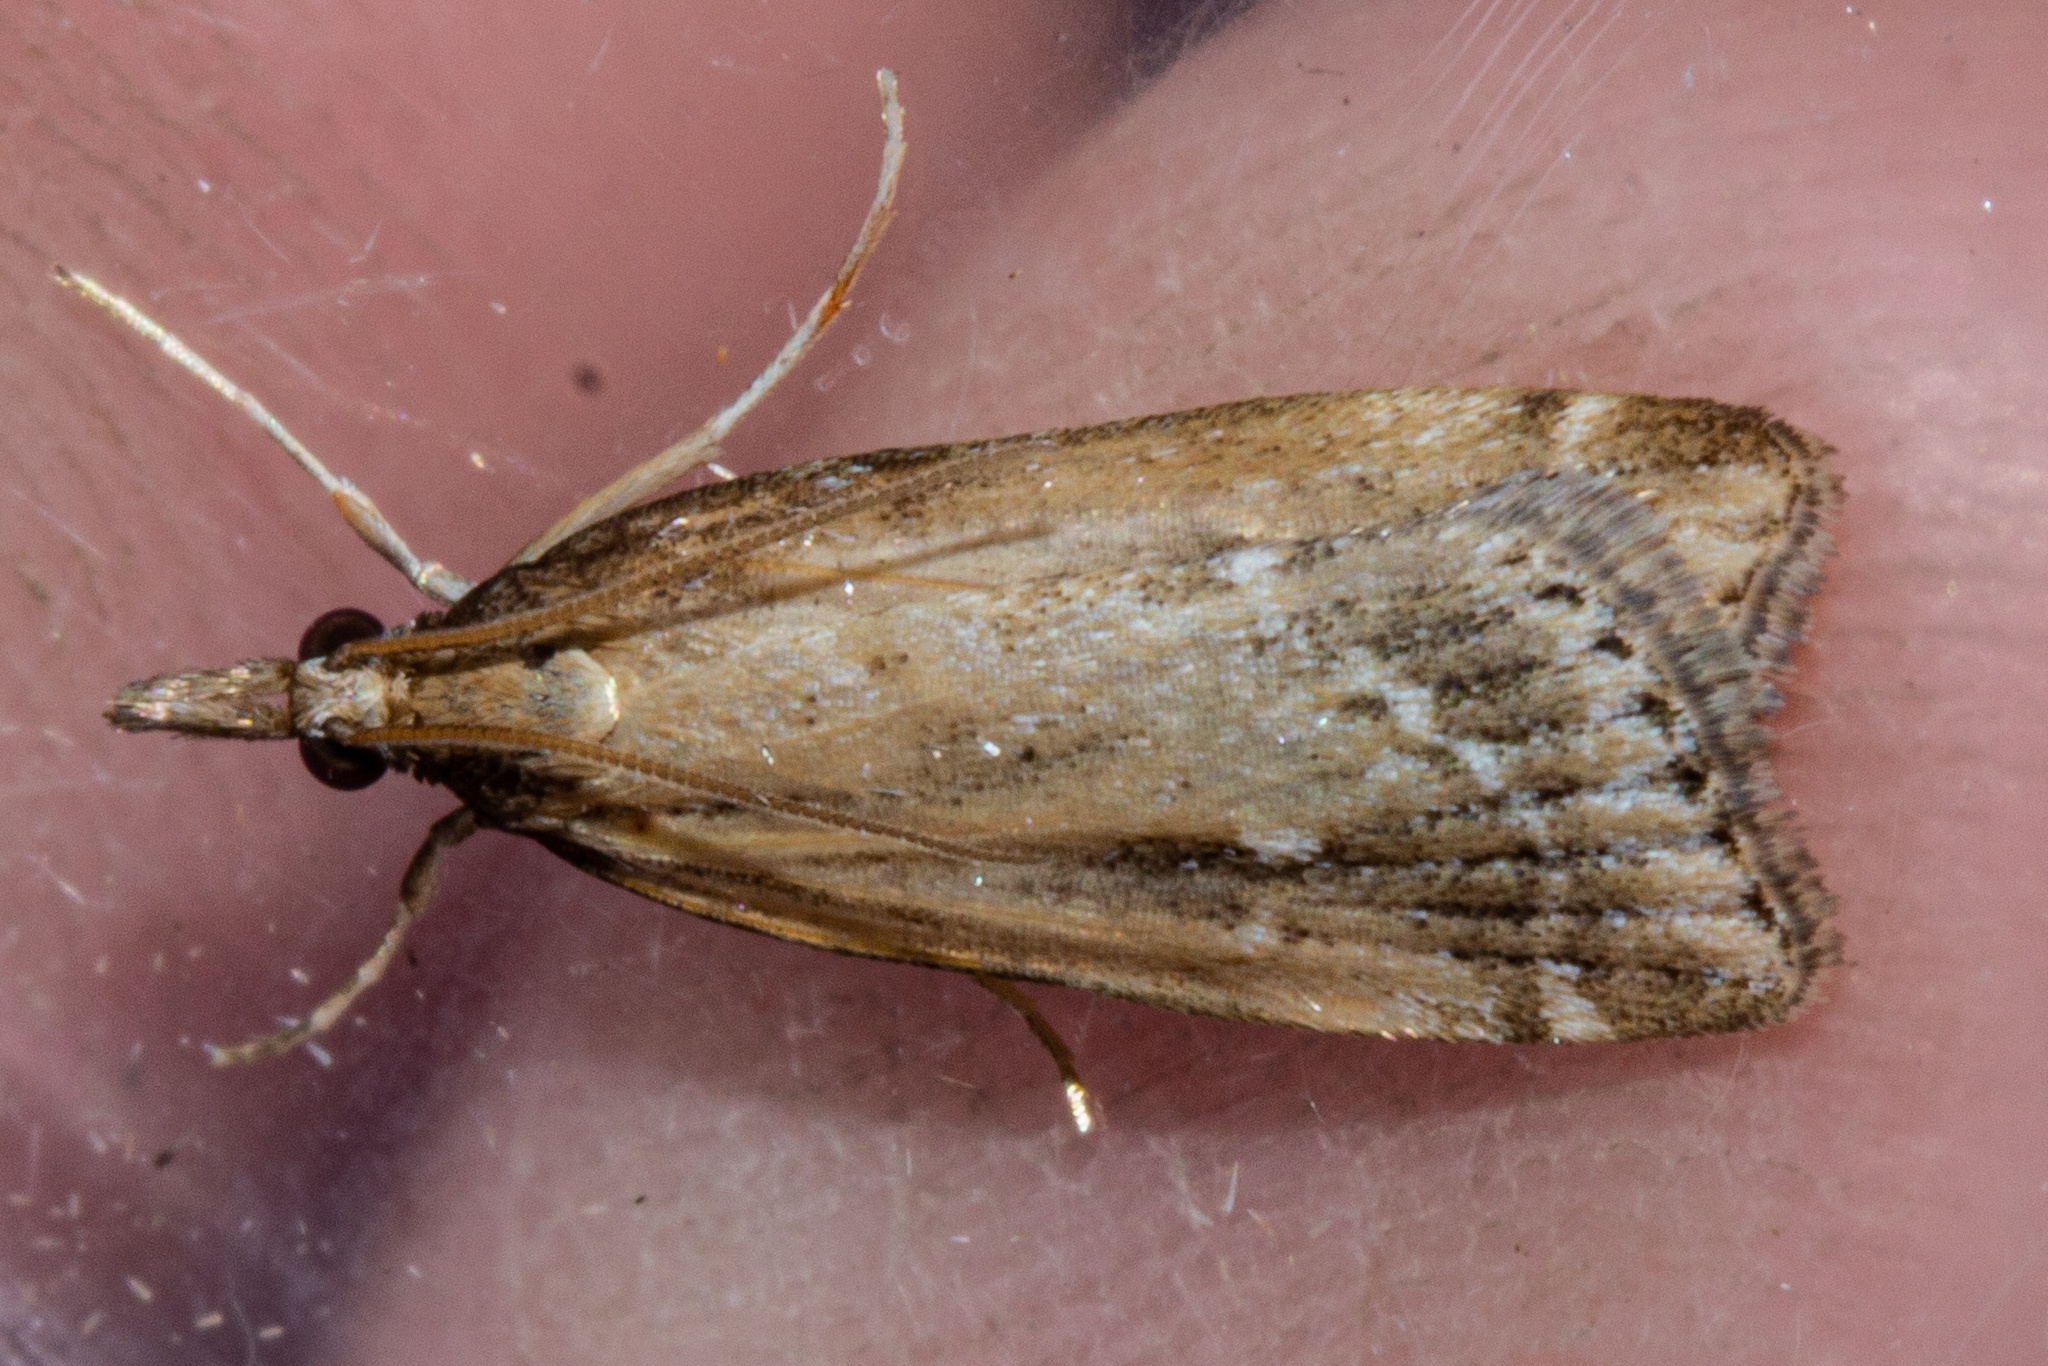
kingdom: Animalia
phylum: Arthropoda
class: Insecta
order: Lepidoptera
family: Crambidae
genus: Eudonia
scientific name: Eudonia octophora
